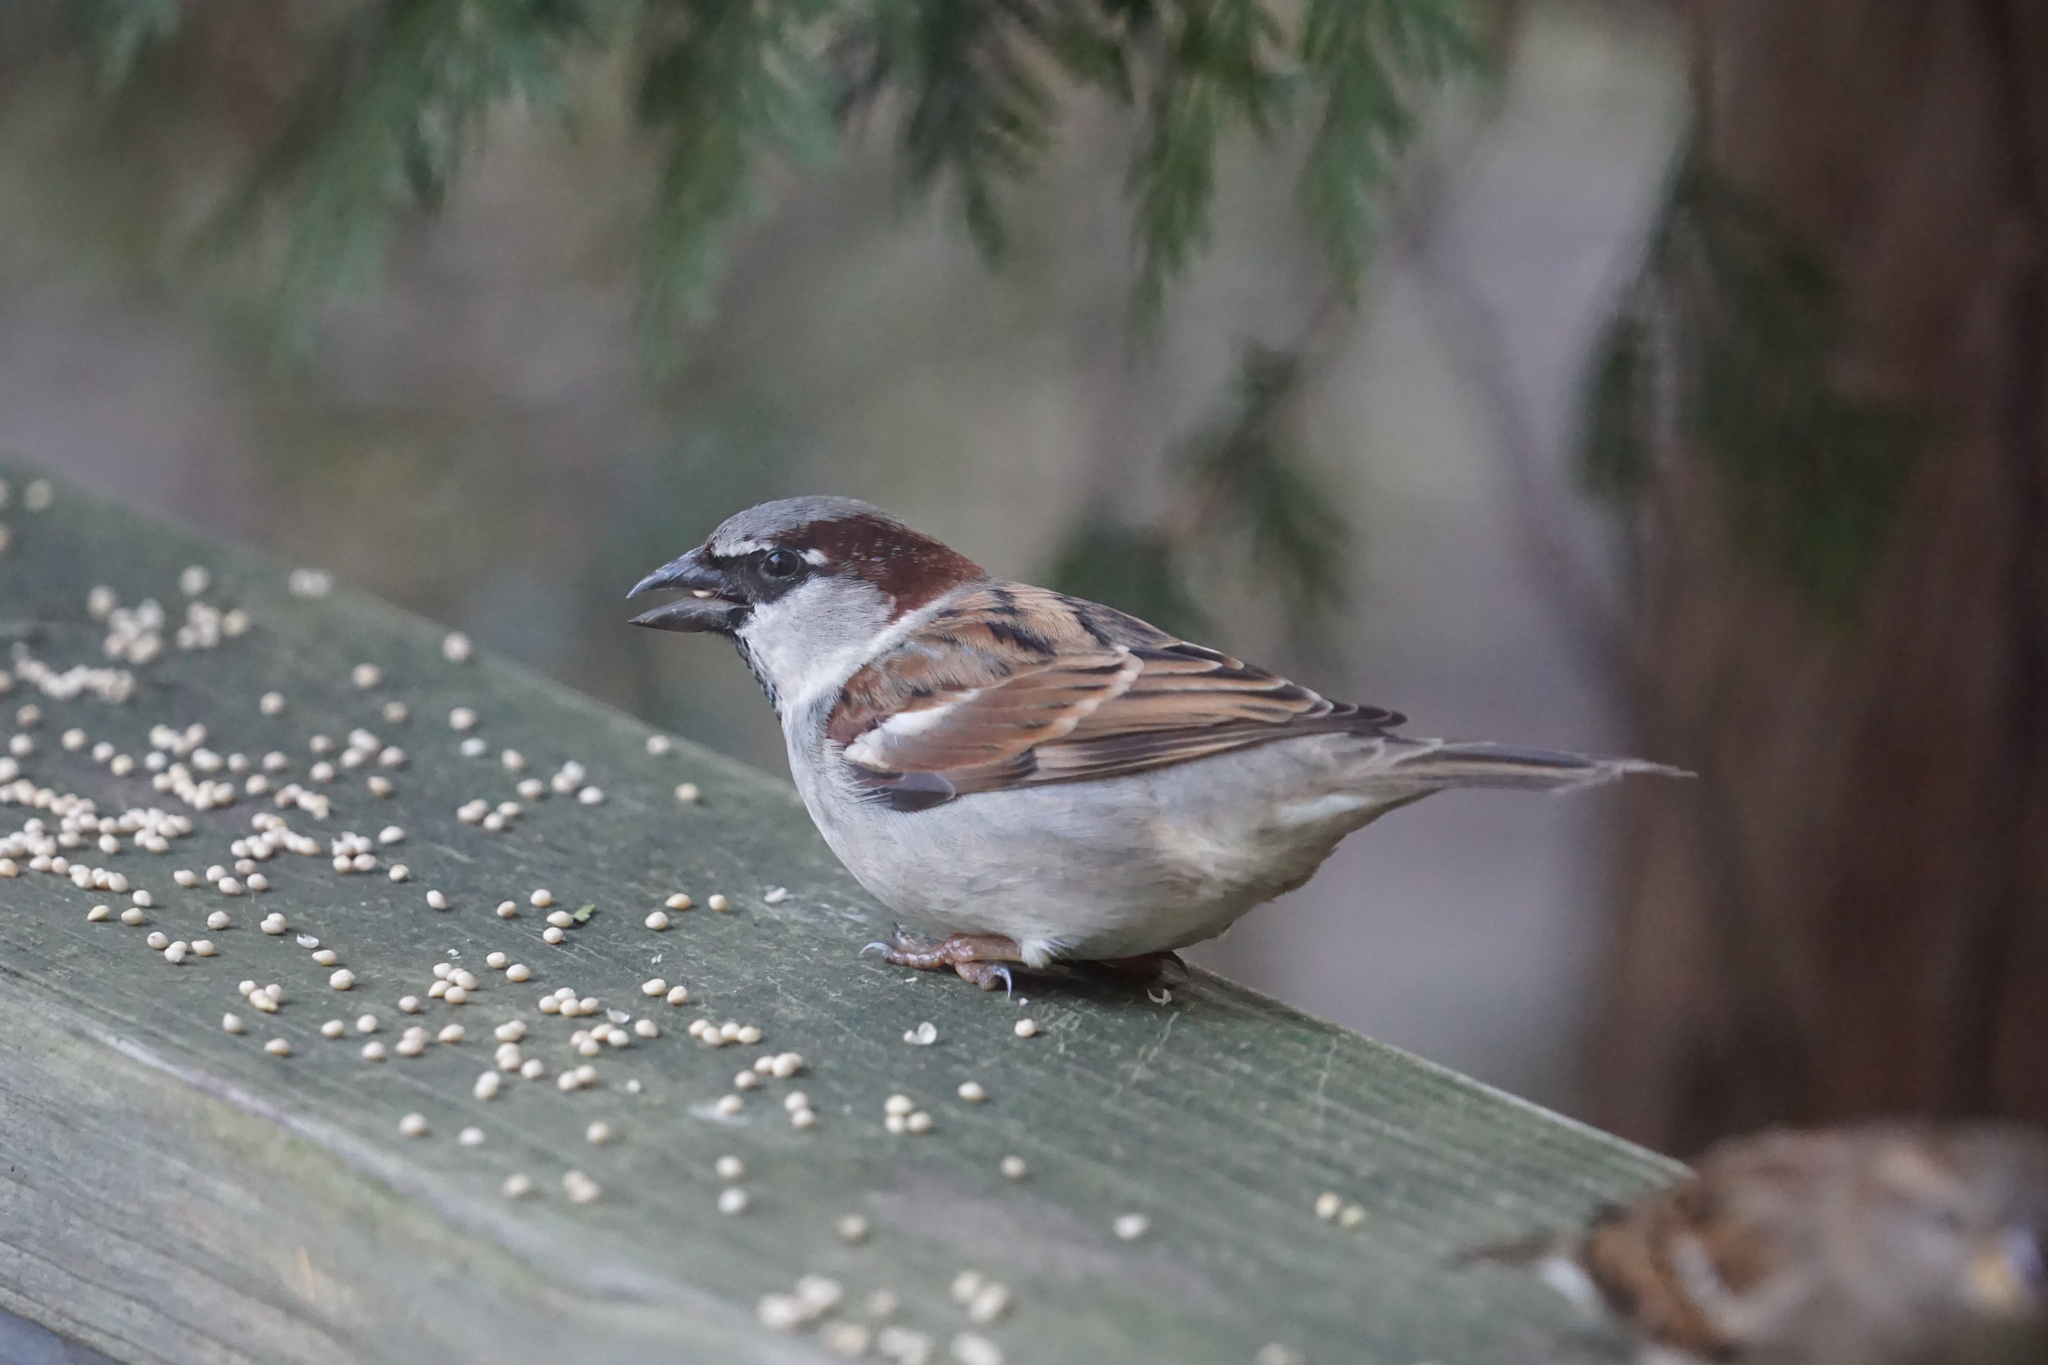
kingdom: Animalia
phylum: Chordata
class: Aves
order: Passeriformes
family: Passeridae
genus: Passer
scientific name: Passer domesticus
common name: House sparrow
